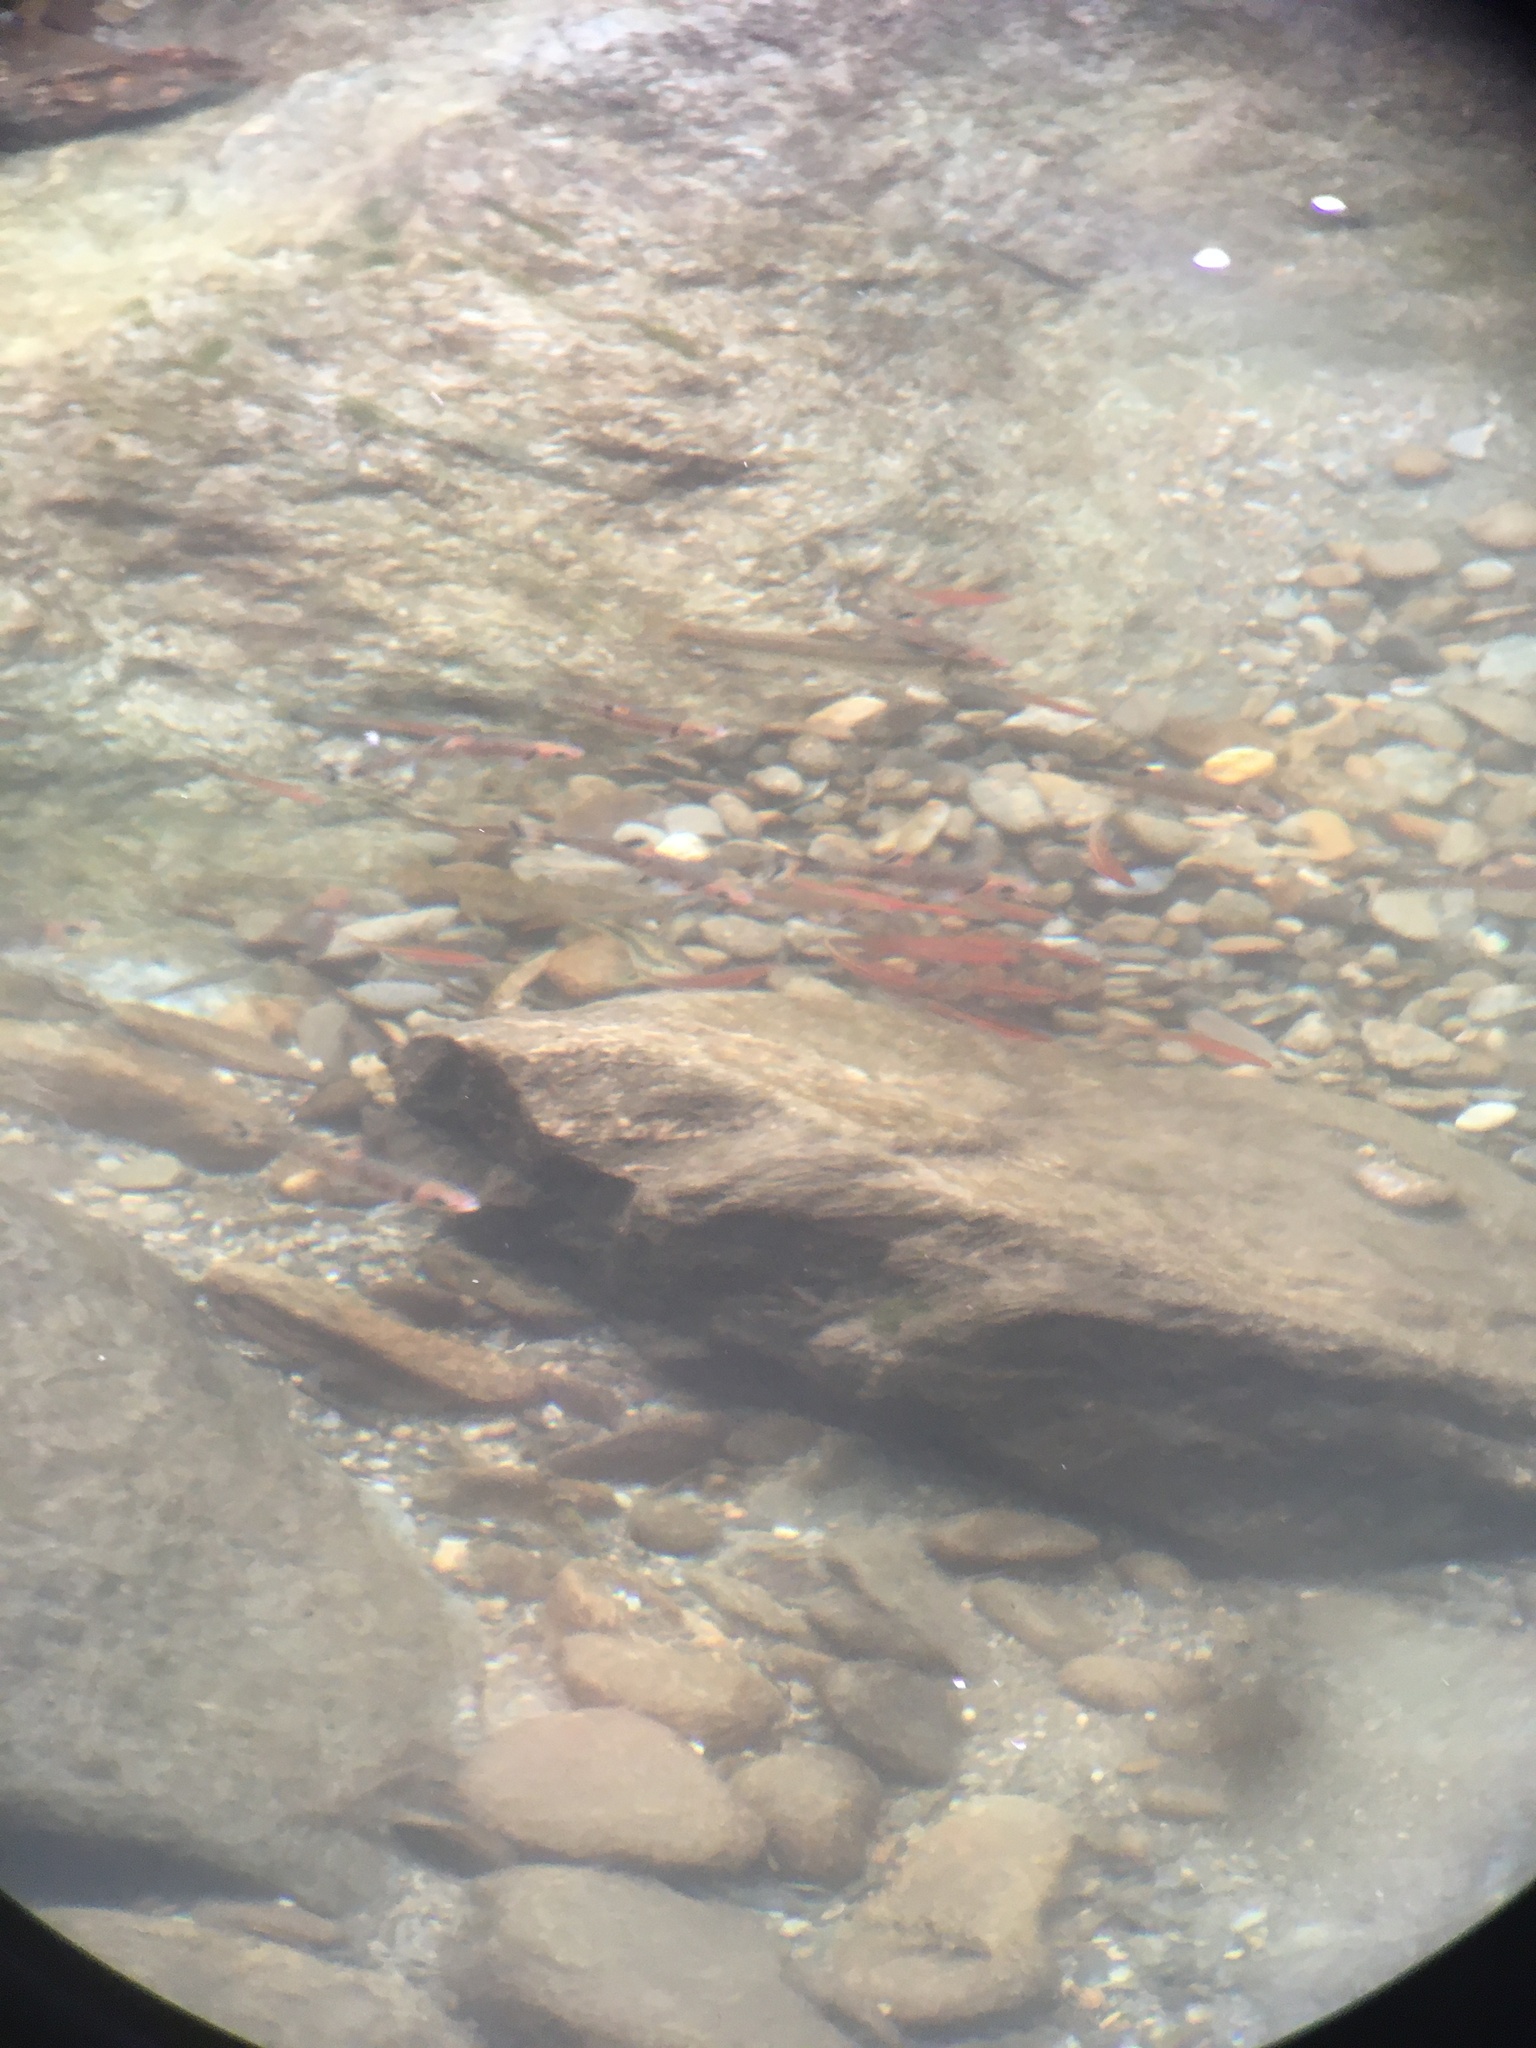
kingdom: Animalia
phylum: Chordata
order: Cypriniformes
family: Cyprinidae
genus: Luxilus
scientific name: Luxilus
